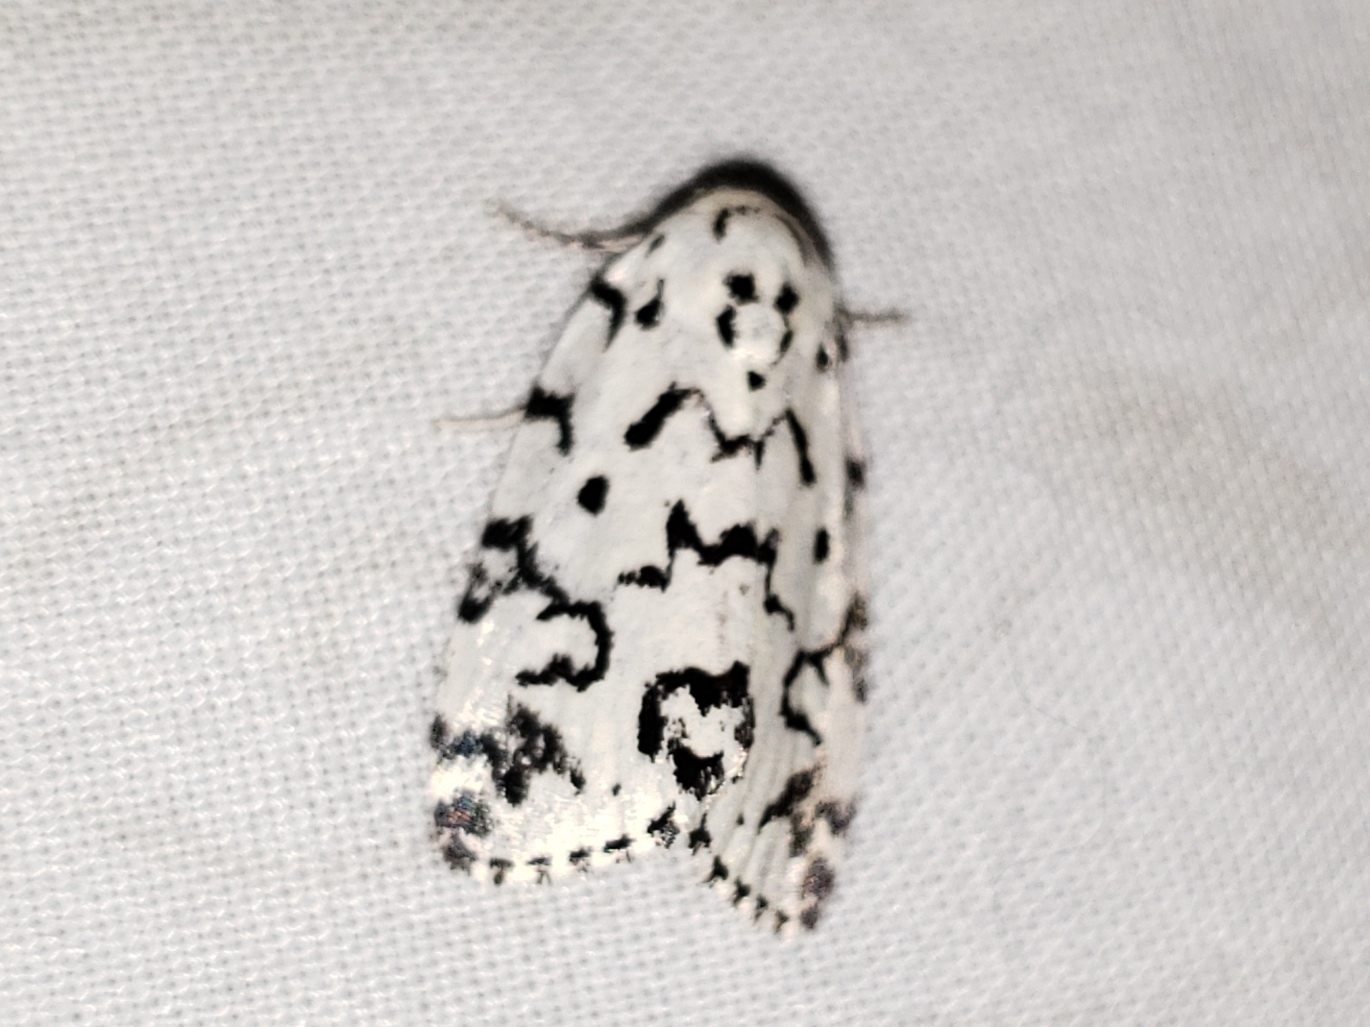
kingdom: Animalia
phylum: Arthropoda
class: Insecta
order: Lepidoptera
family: Noctuidae
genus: Polygrammate
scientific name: Polygrammate hebraeicum
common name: Hebrew moth
